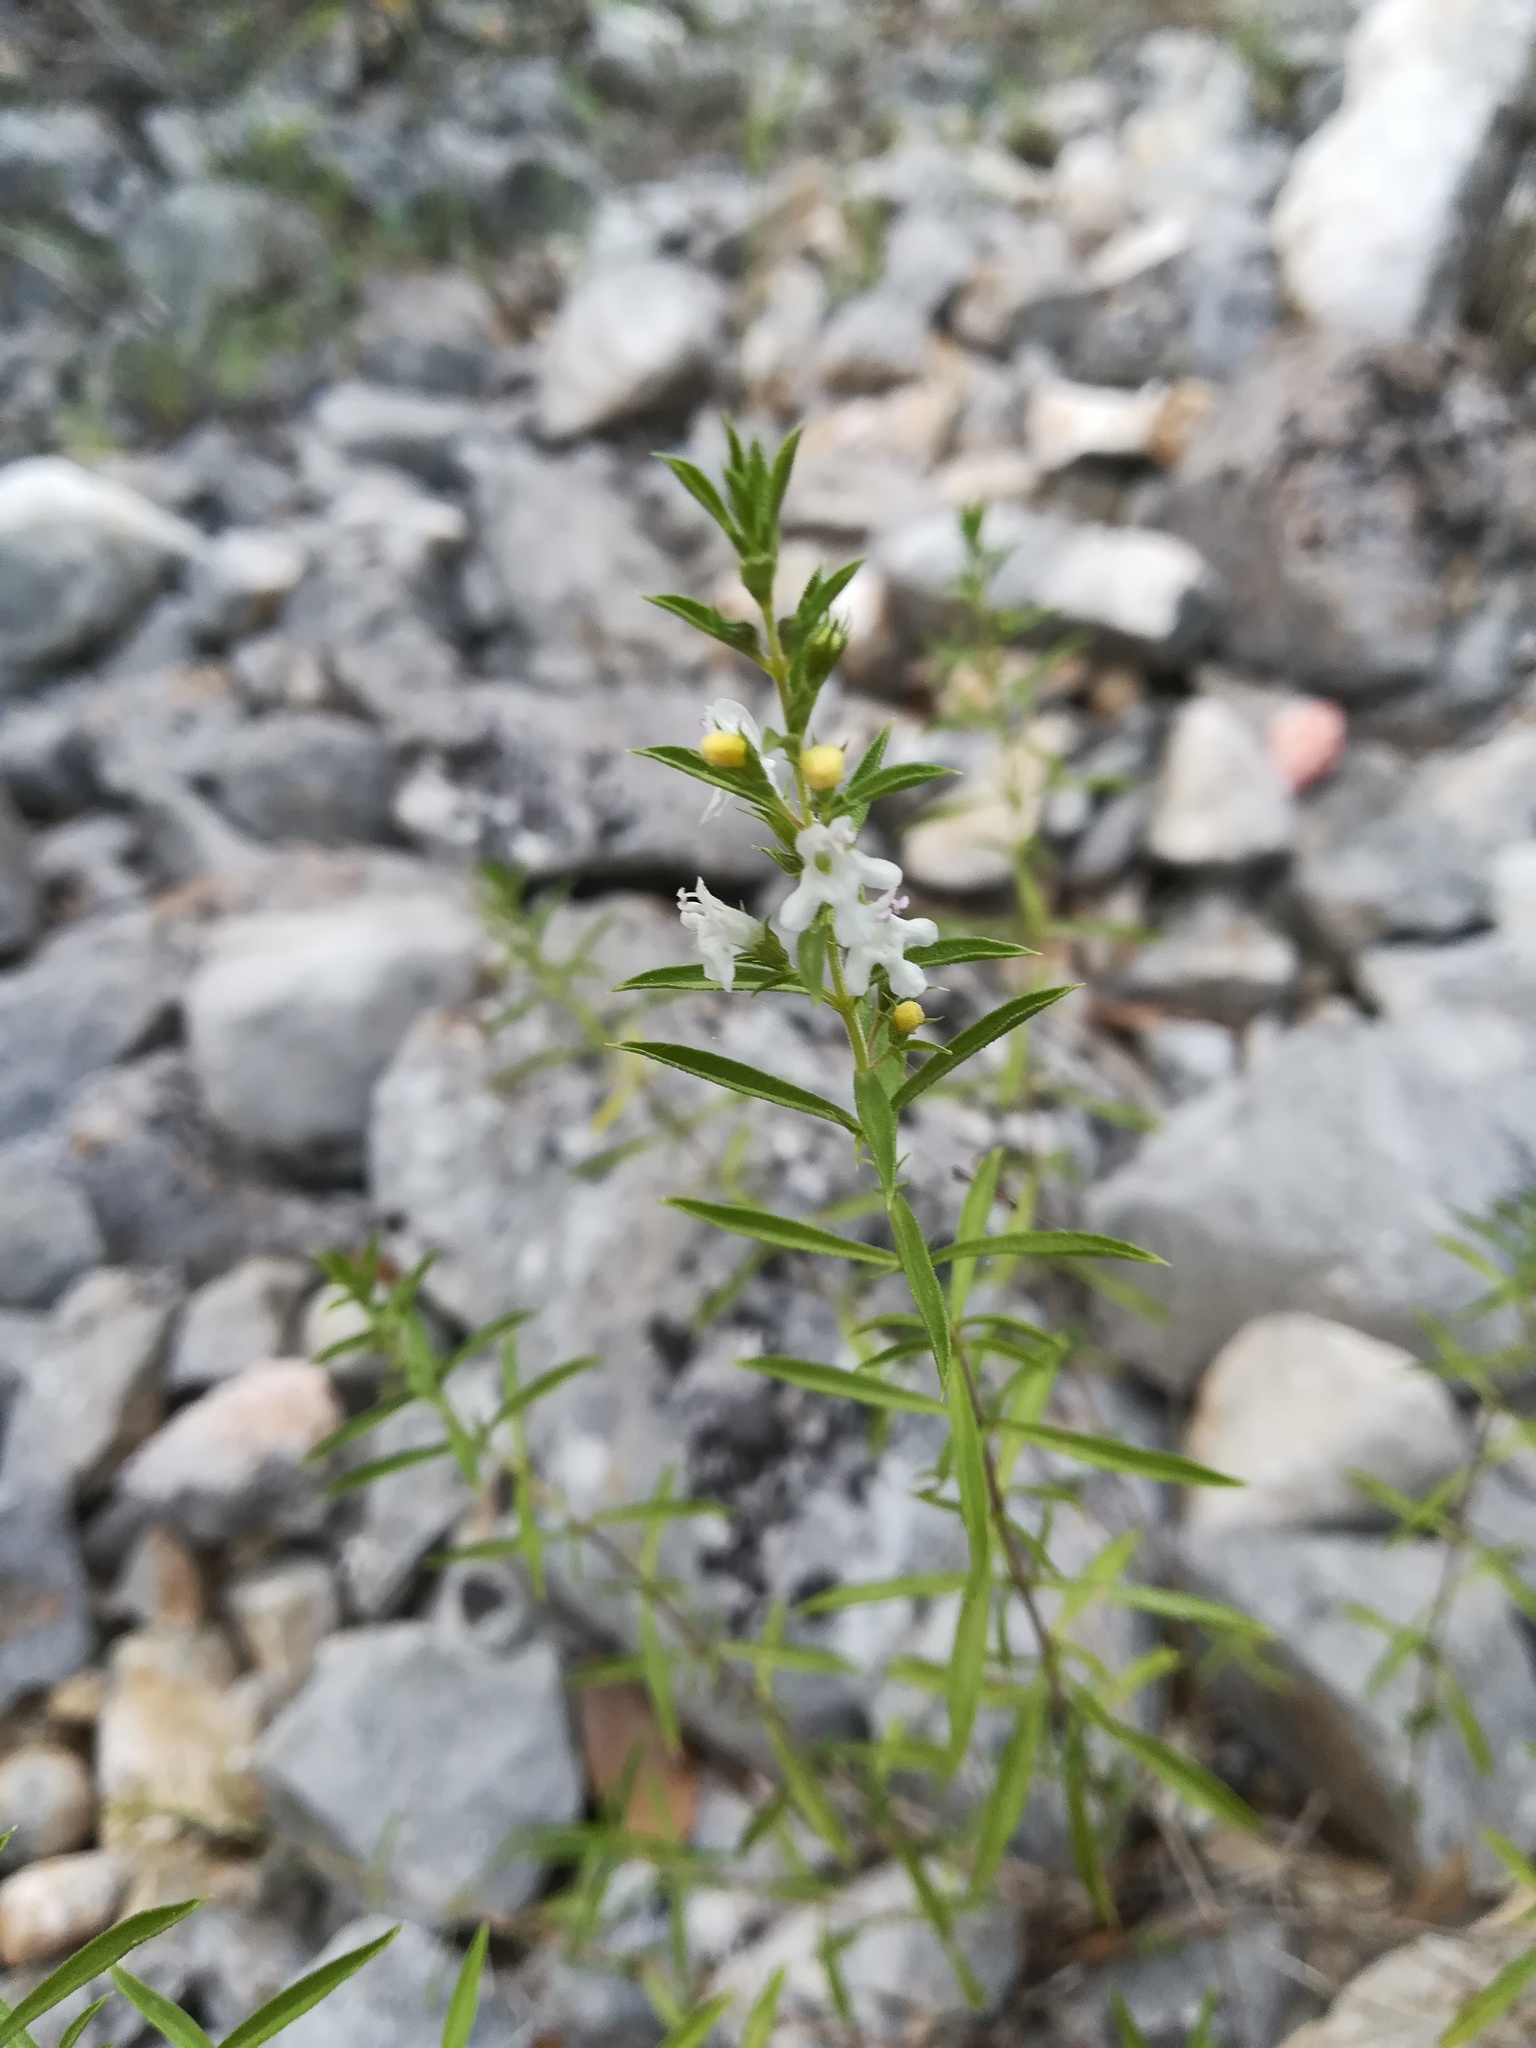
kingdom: Plantae
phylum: Tracheophyta
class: Magnoliopsida
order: Lamiales
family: Lamiaceae
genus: Satureja
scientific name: Satureja montana
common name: Winter savory
